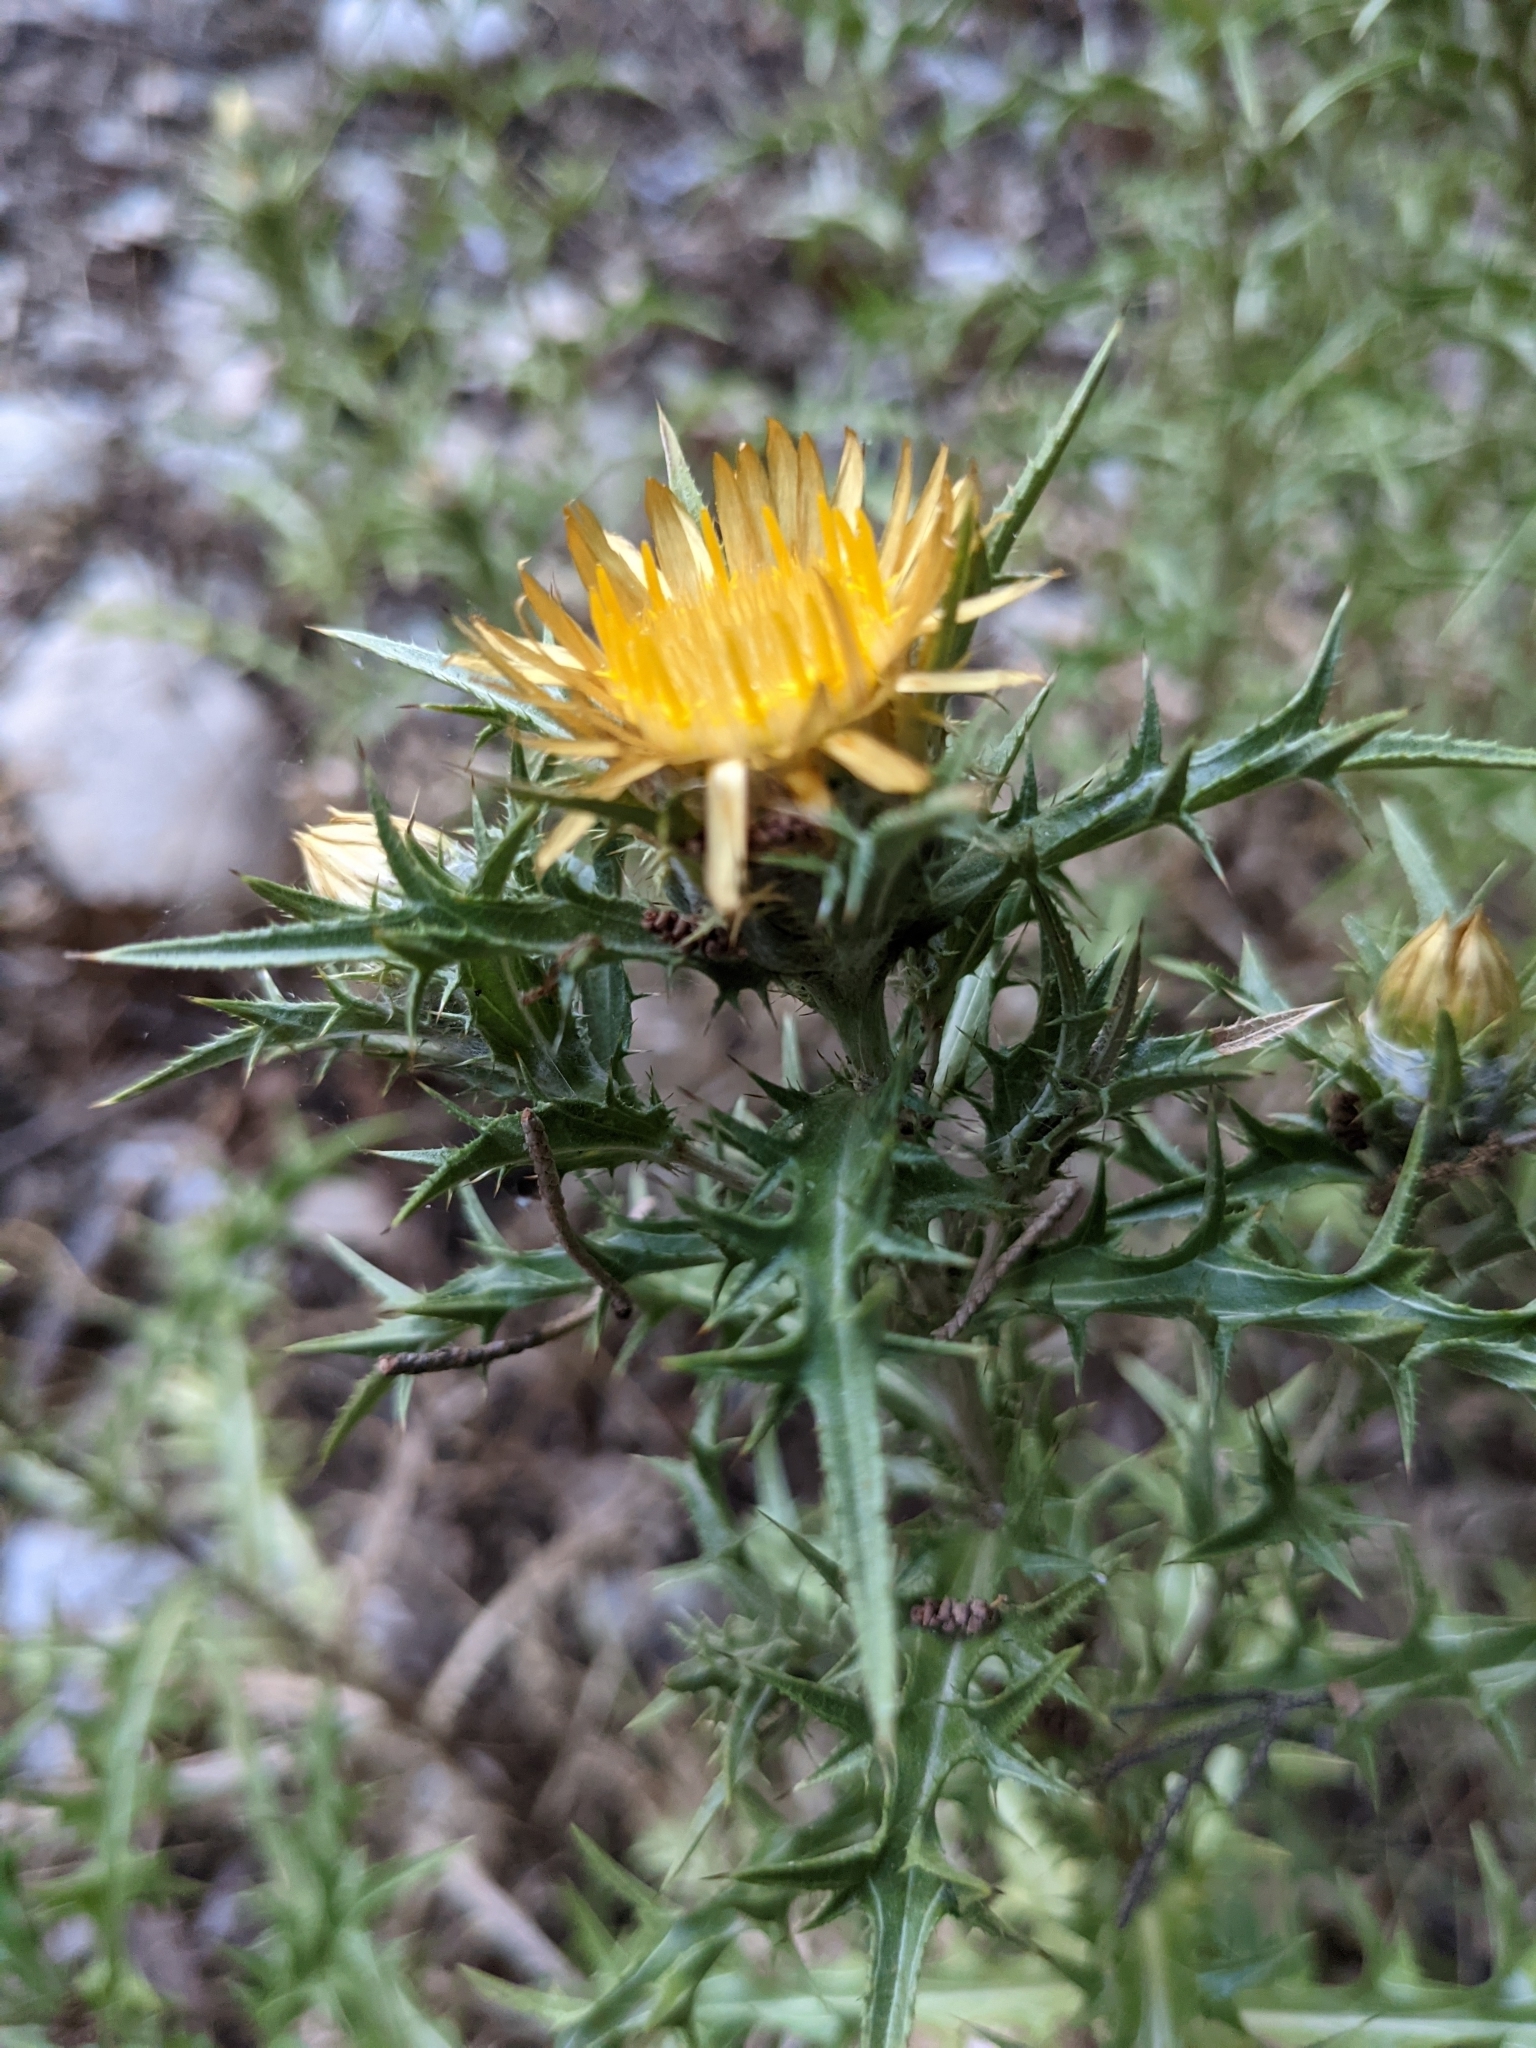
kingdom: Plantae
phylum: Tracheophyta
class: Magnoliopsida
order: Asterales
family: Asteraceae
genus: Carlina
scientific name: Carlina corymbosa
